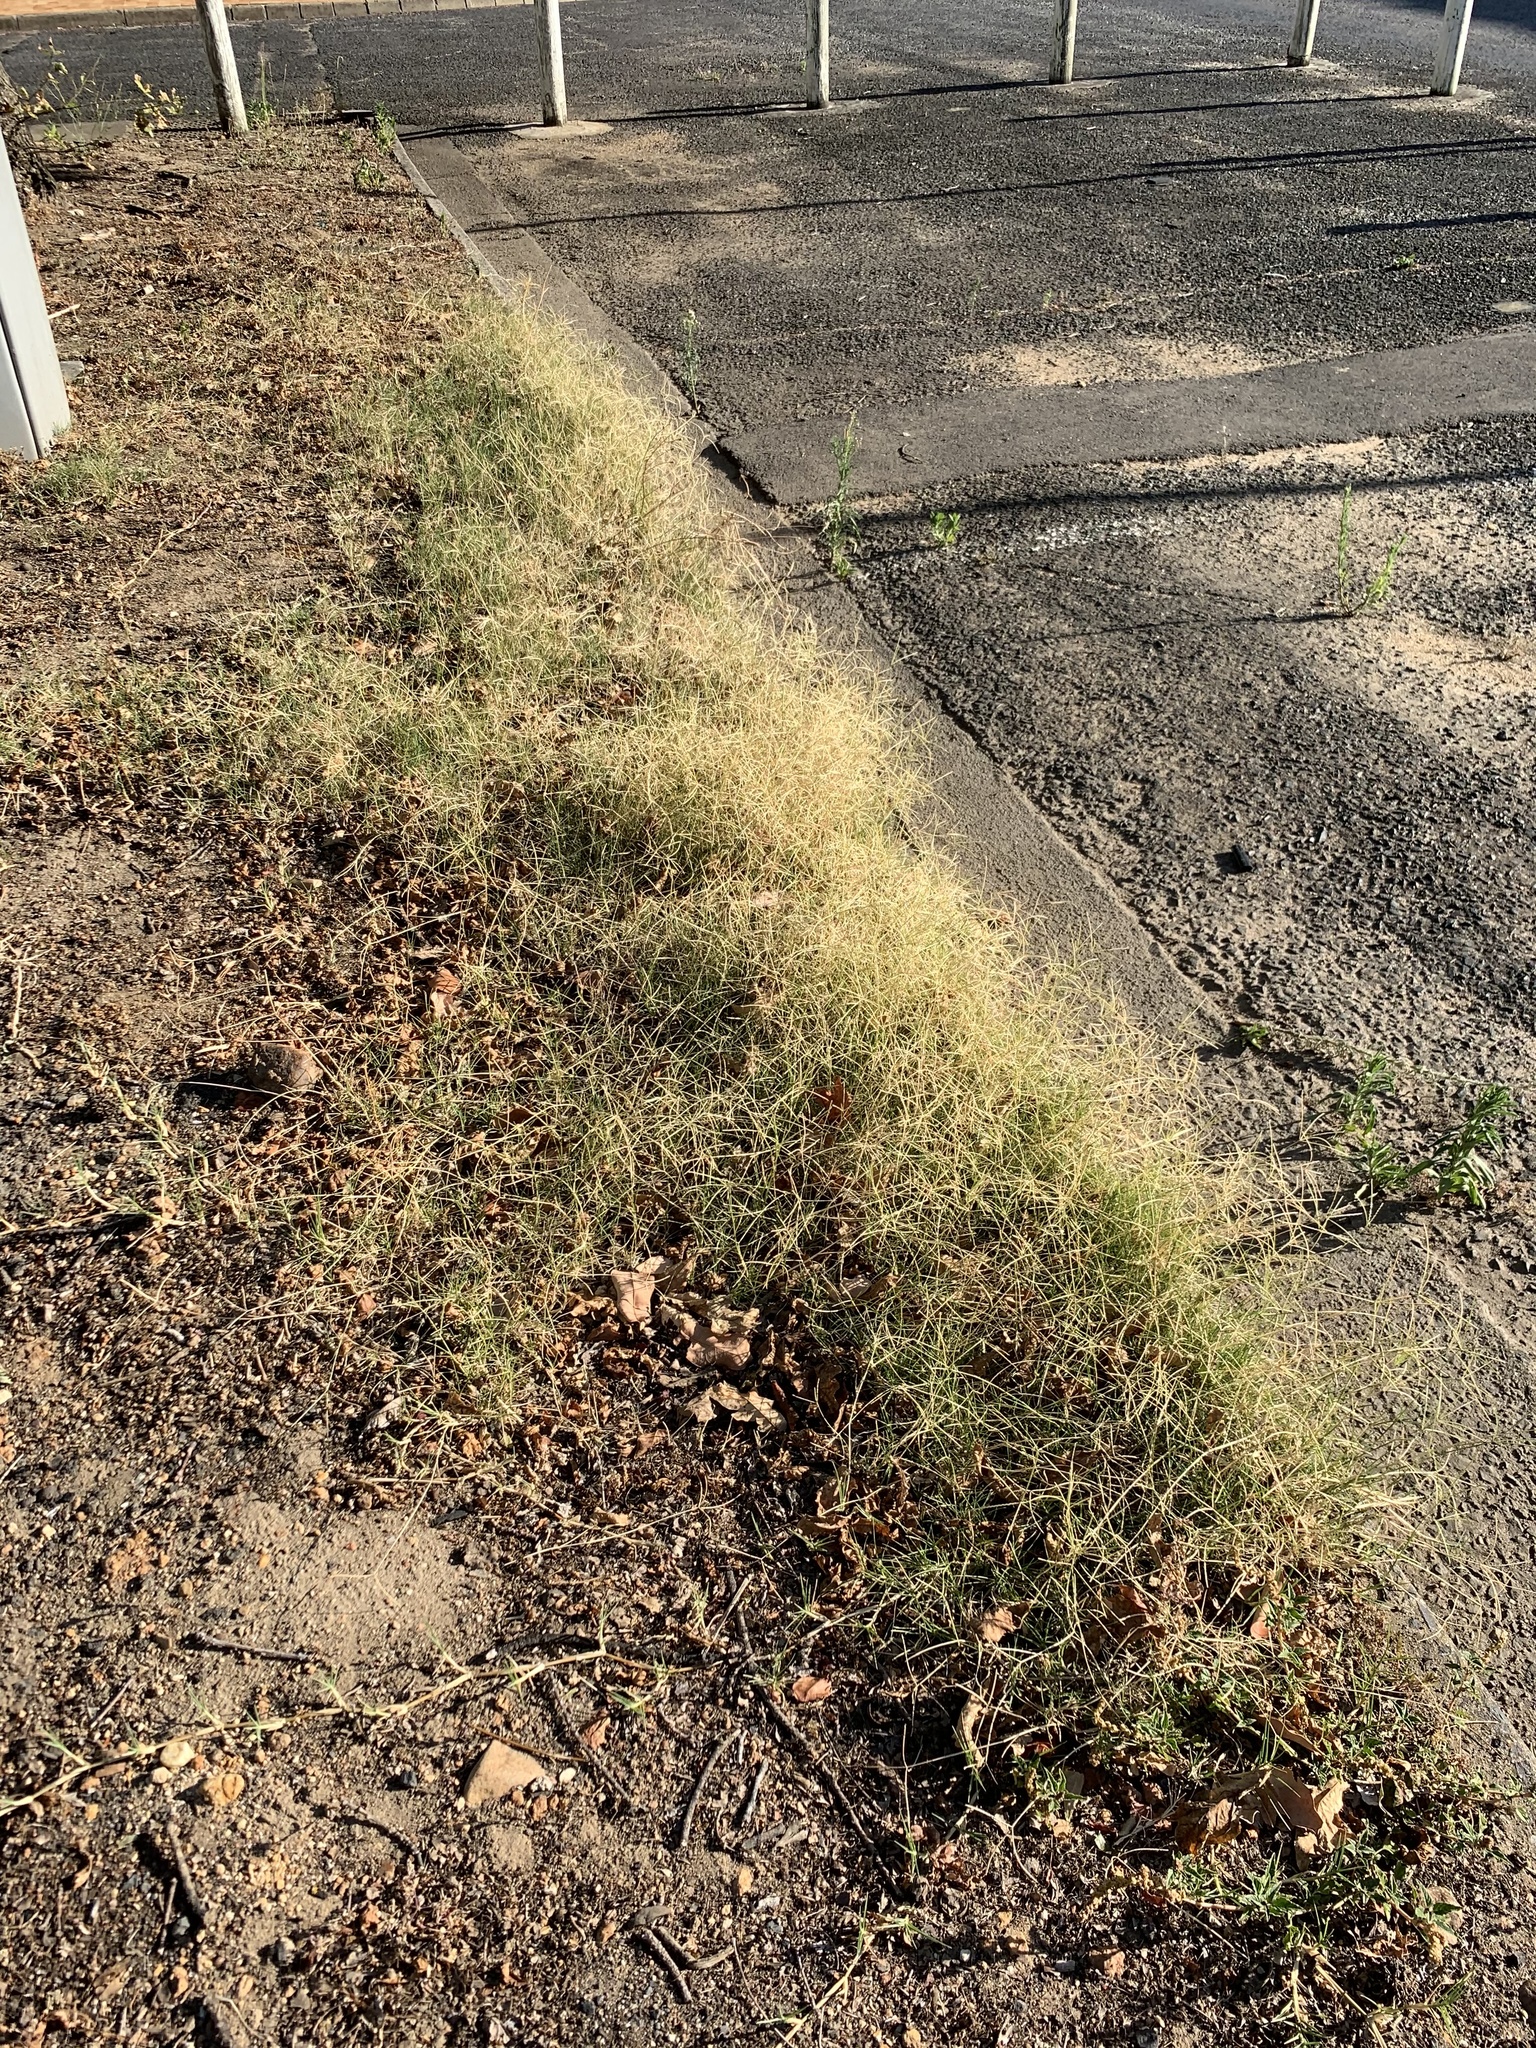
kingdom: Plantae
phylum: Tracheophyta
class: Liliopsida
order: Poales
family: Poaceae
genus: Cynodon
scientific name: Cynodon dactylon
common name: Bermuda grass
